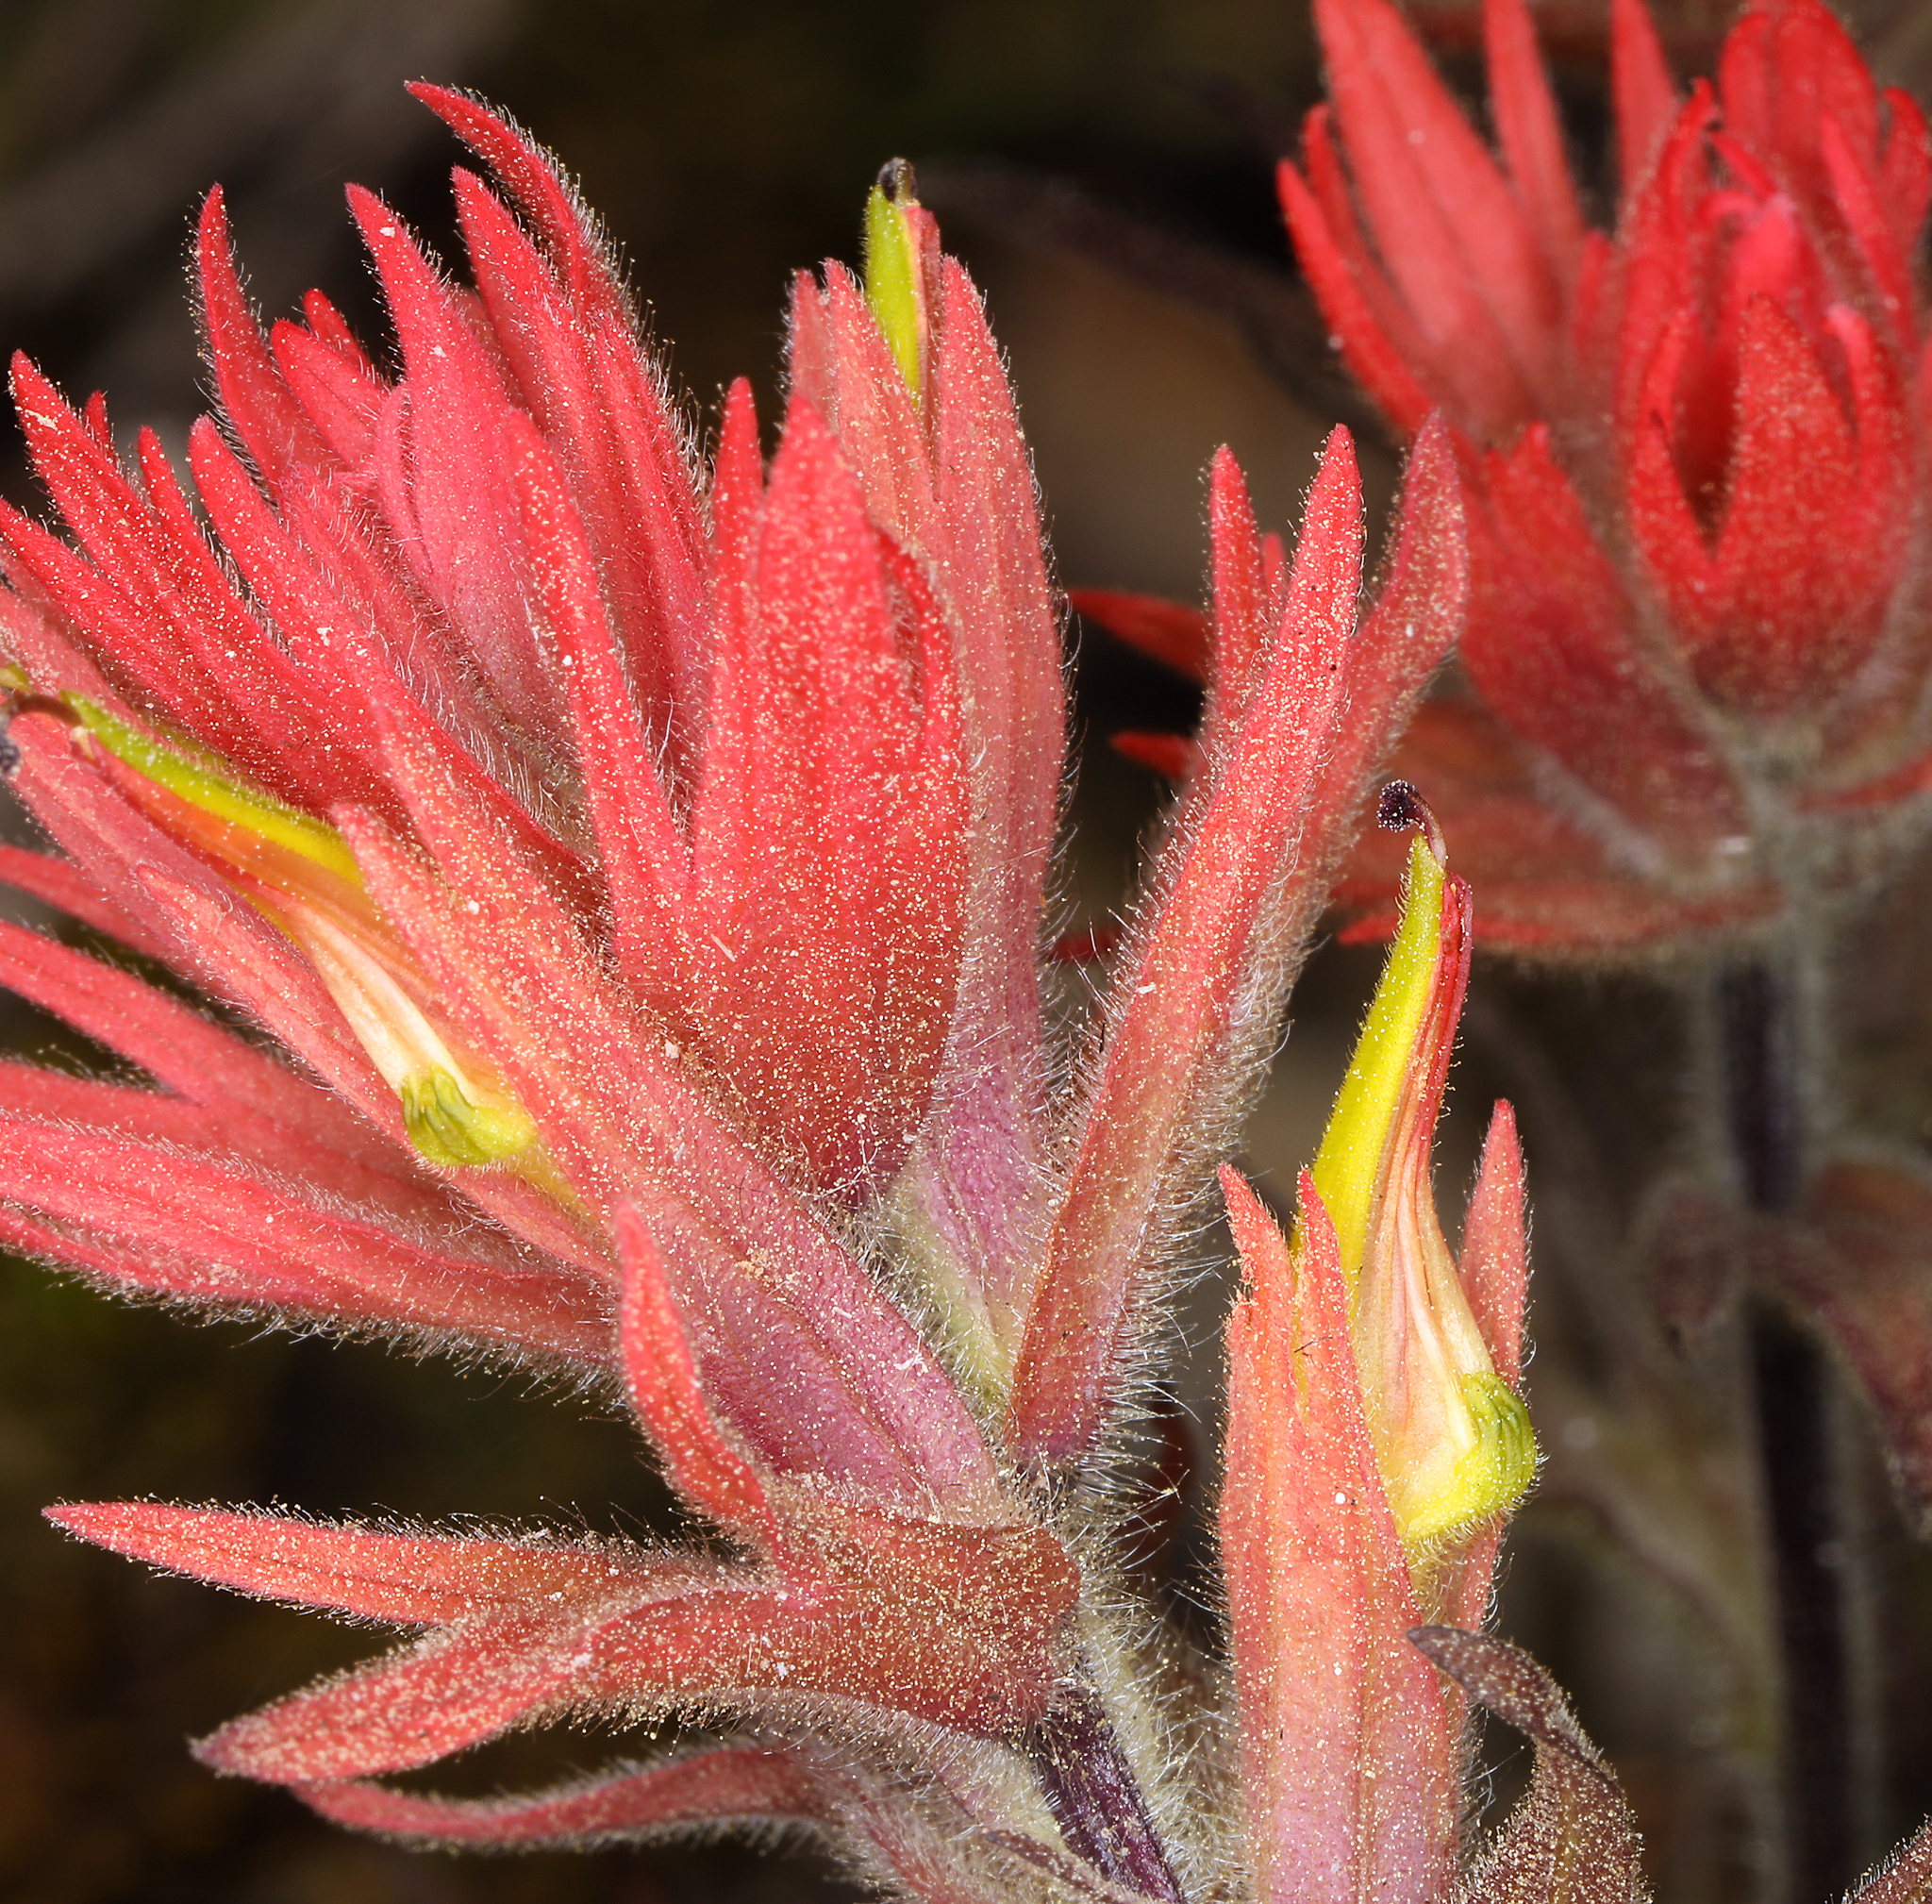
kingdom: Plantae
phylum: Tracheophyta
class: Magnoliopsida
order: Lamiales
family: Orobanchaceae
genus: Castilleja
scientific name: Castilleja peirsonii
